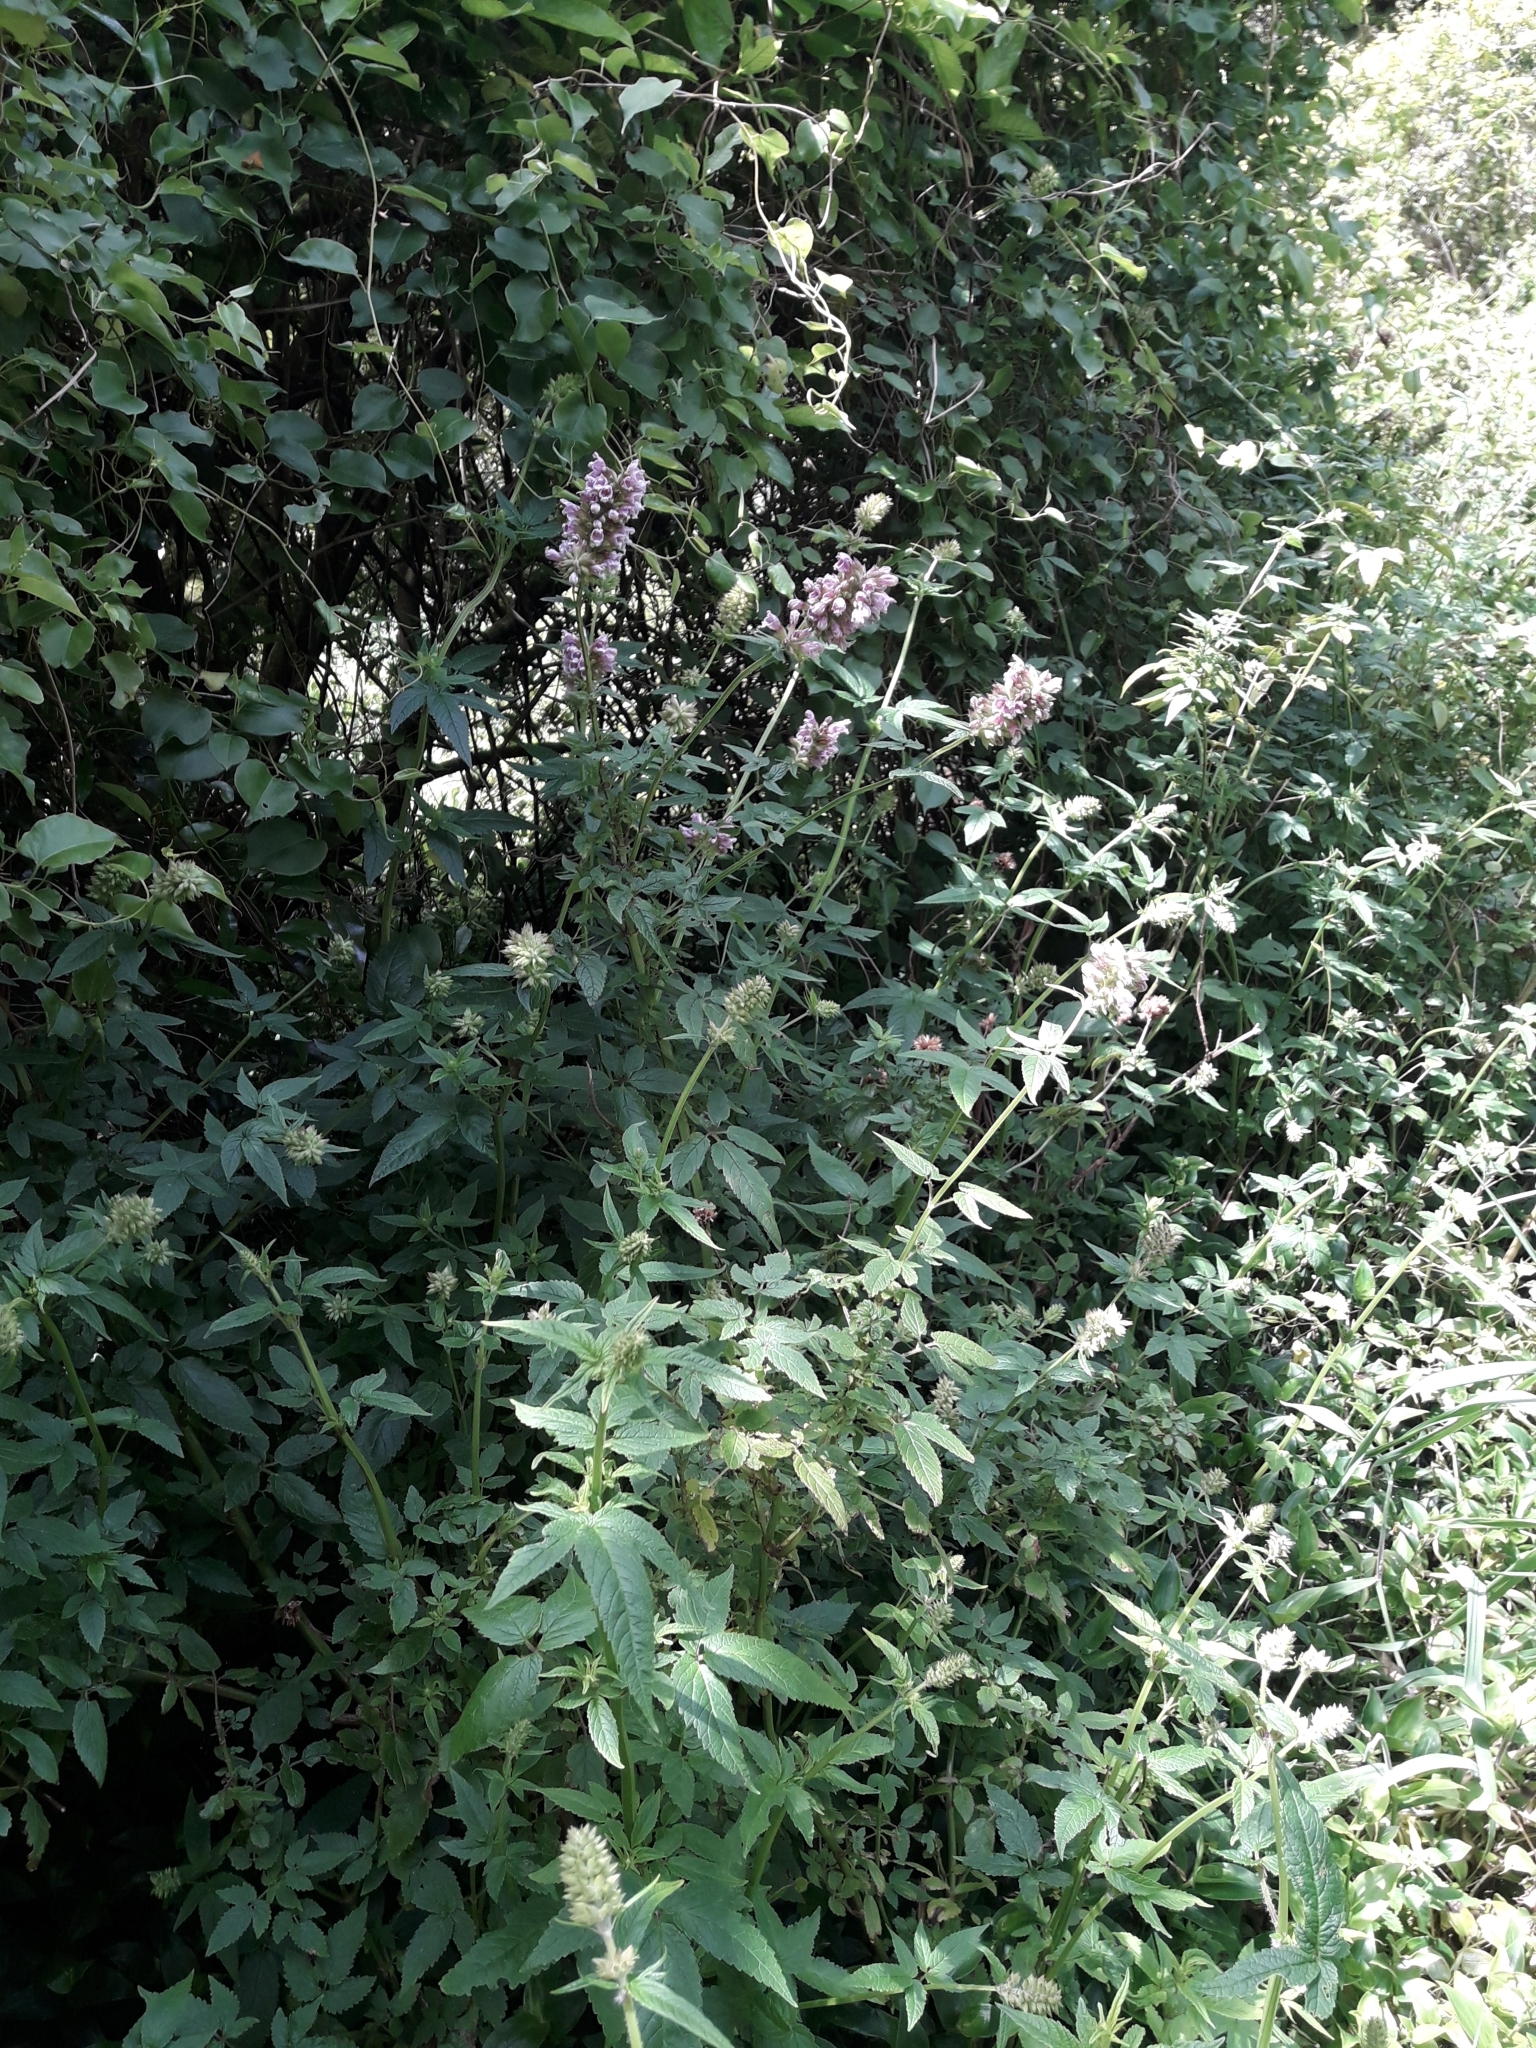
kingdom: Plantae
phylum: Tracheophyta
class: Magnoliopsida
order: Lamiales
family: Lamiaceae
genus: Cedronella
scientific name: Cedronella canariensis
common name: Canary islands balm
